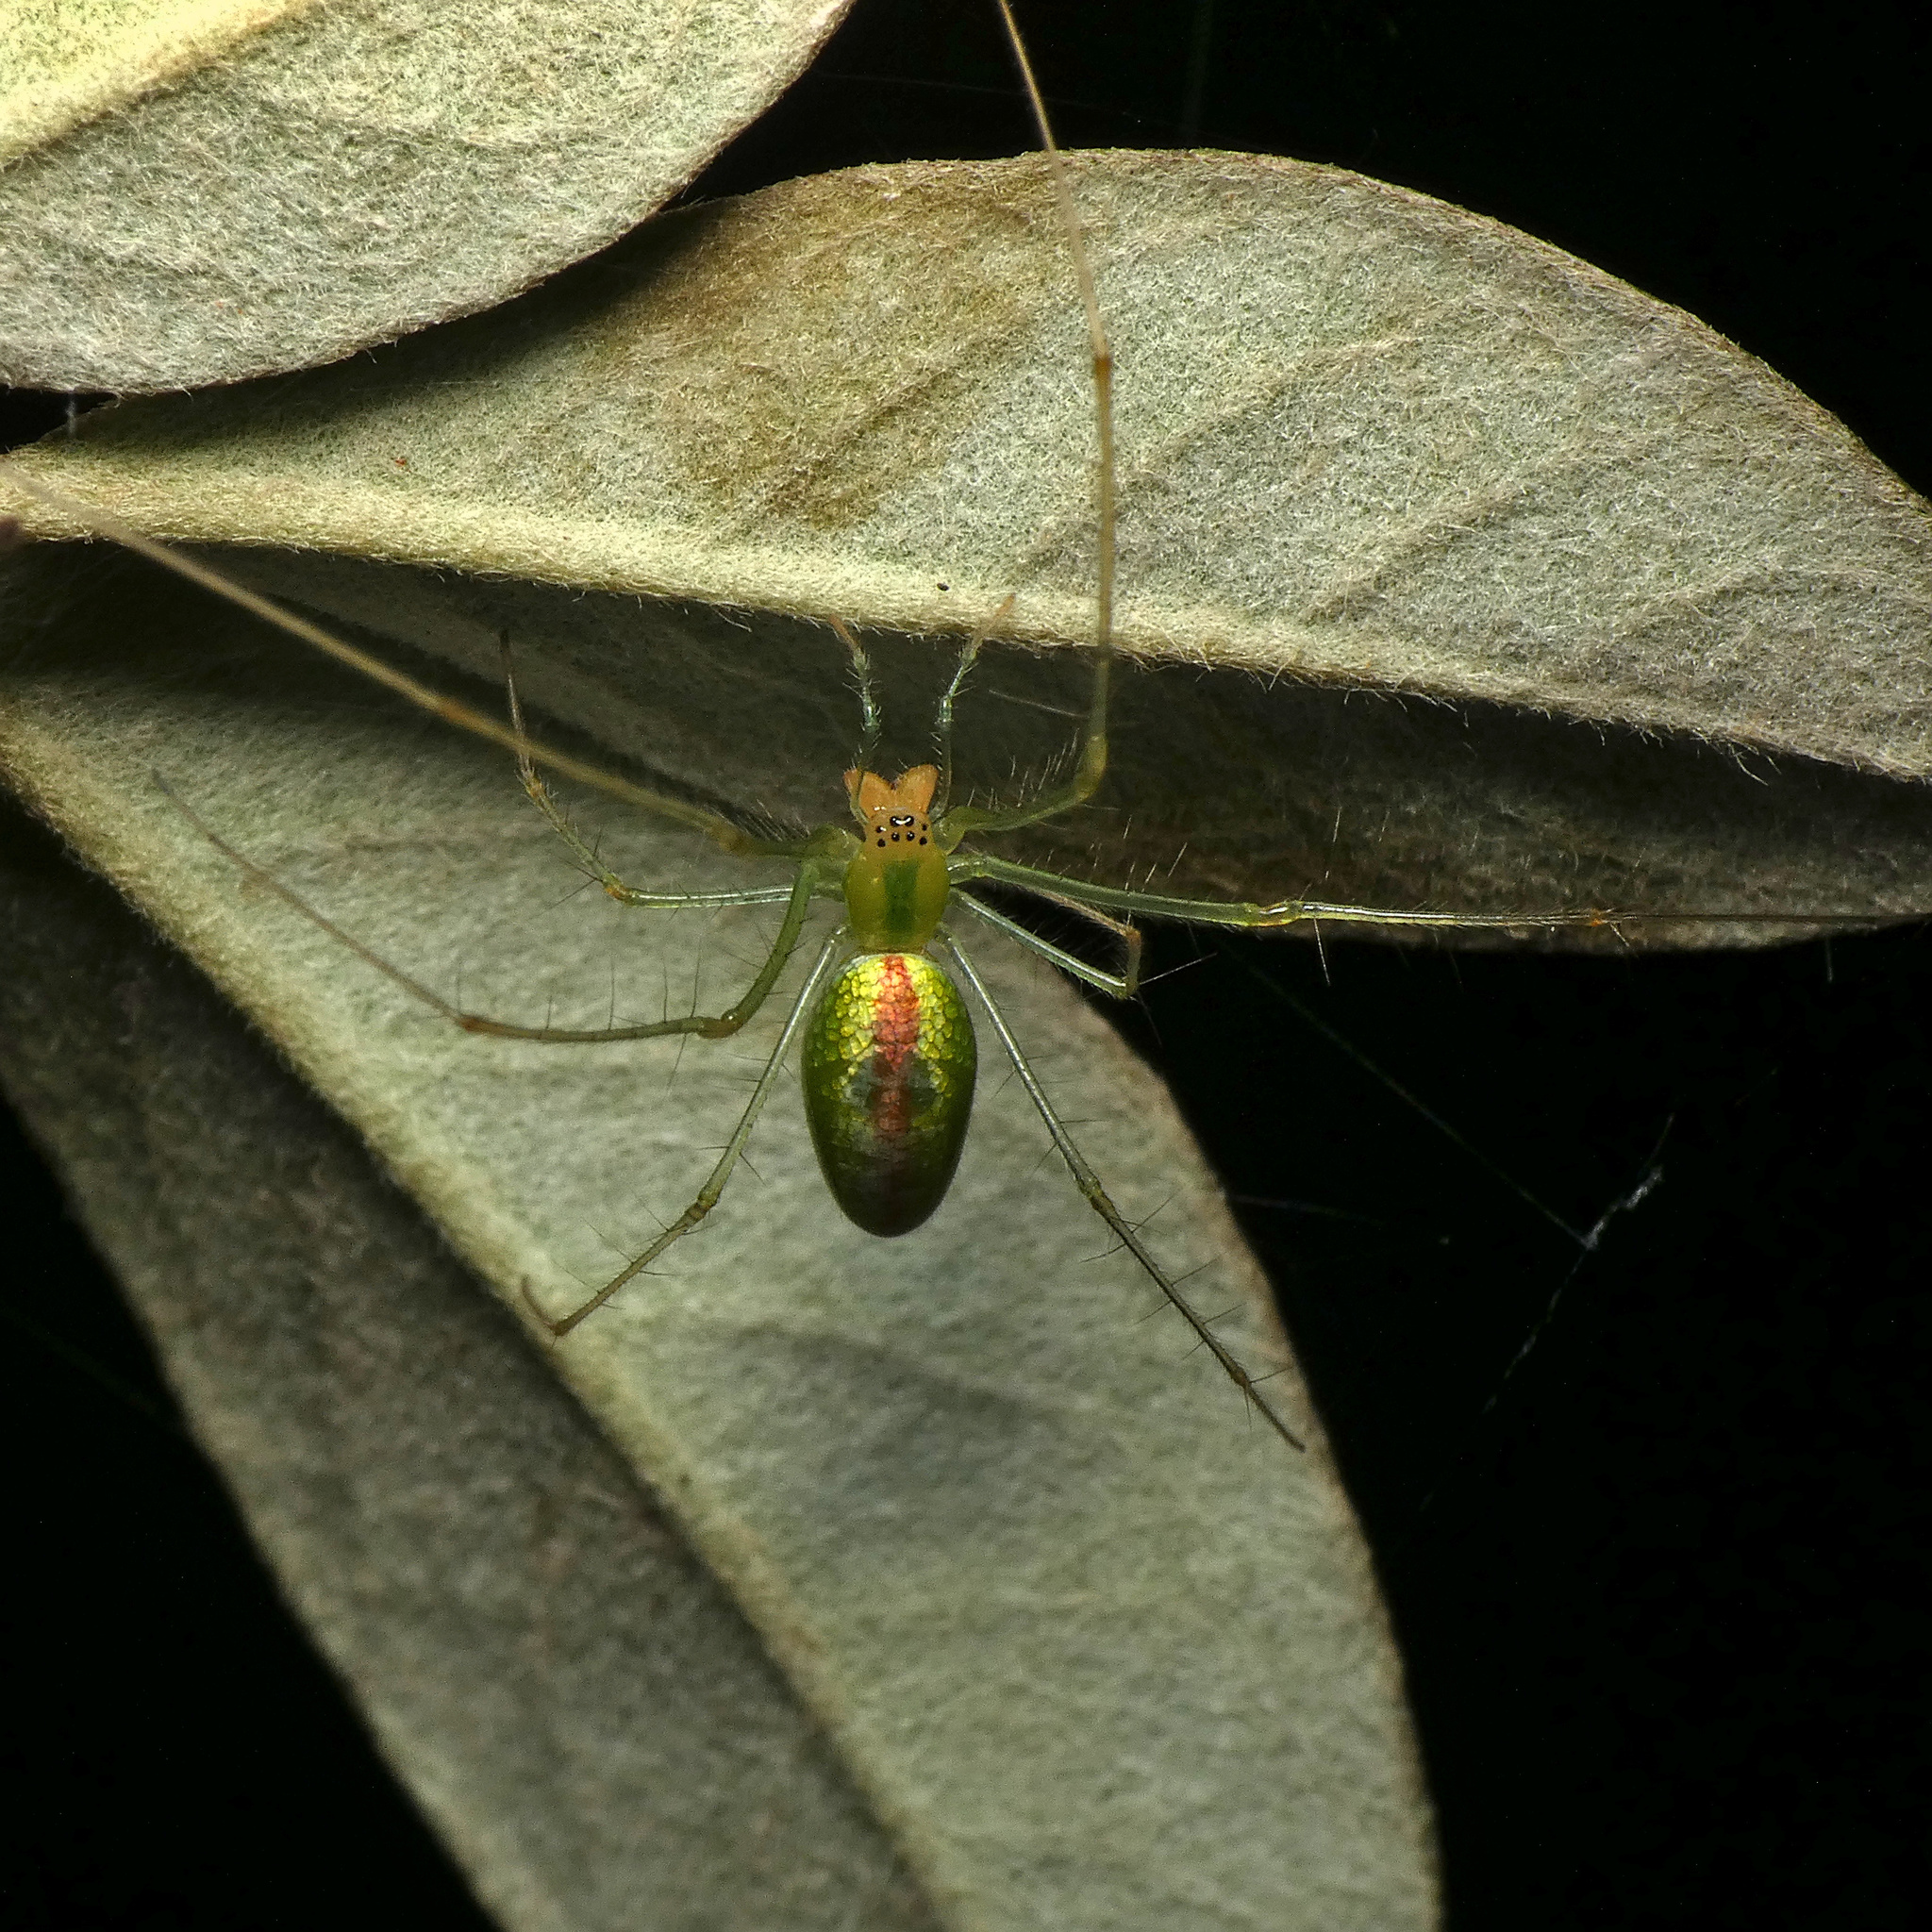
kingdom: Animalia
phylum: Arthropoda
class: Arachnida
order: Araneae
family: Tetragnathidae
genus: Tetragnatha
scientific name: Tetragnatha subsquamata
